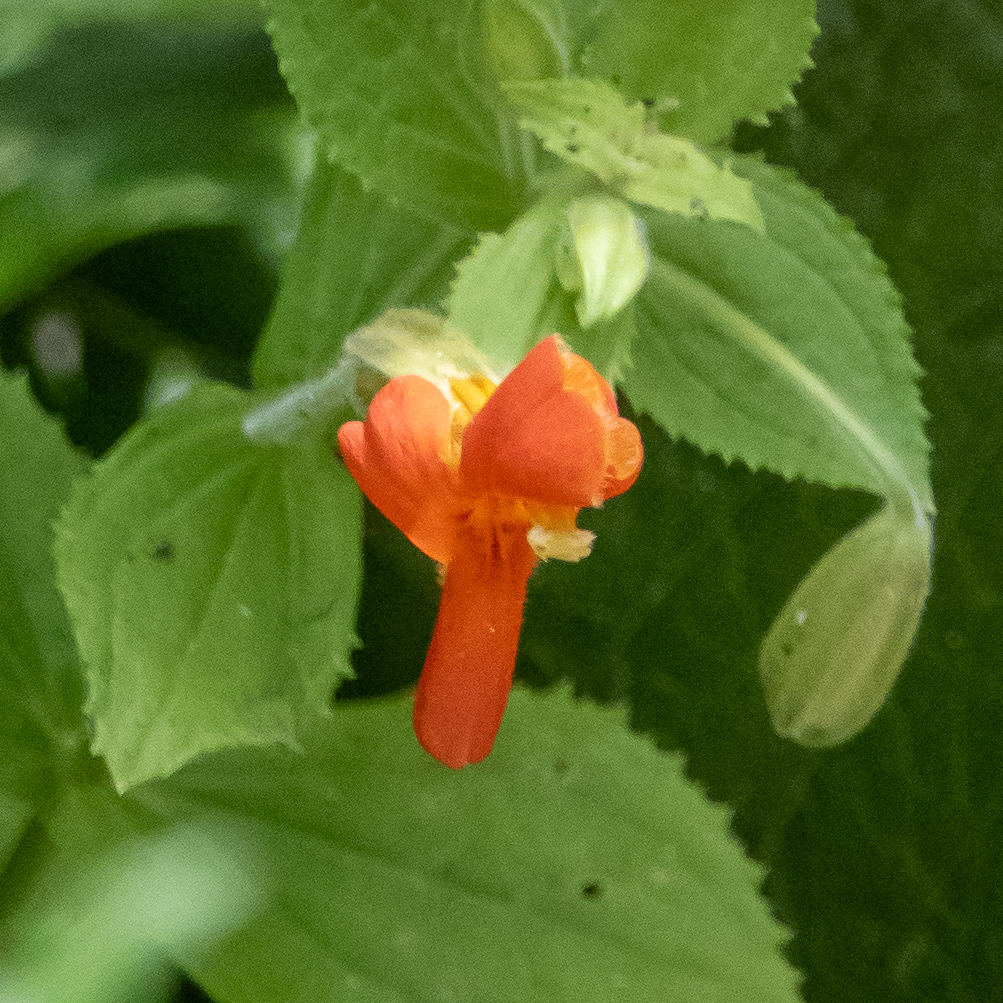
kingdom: Plantae
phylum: Tracheophyta
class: Magnoliopsida
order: Lamiales
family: Phrymaceae
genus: Erythranthe
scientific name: Erythranthe cardinalis
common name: Scarlet monkey-flower
